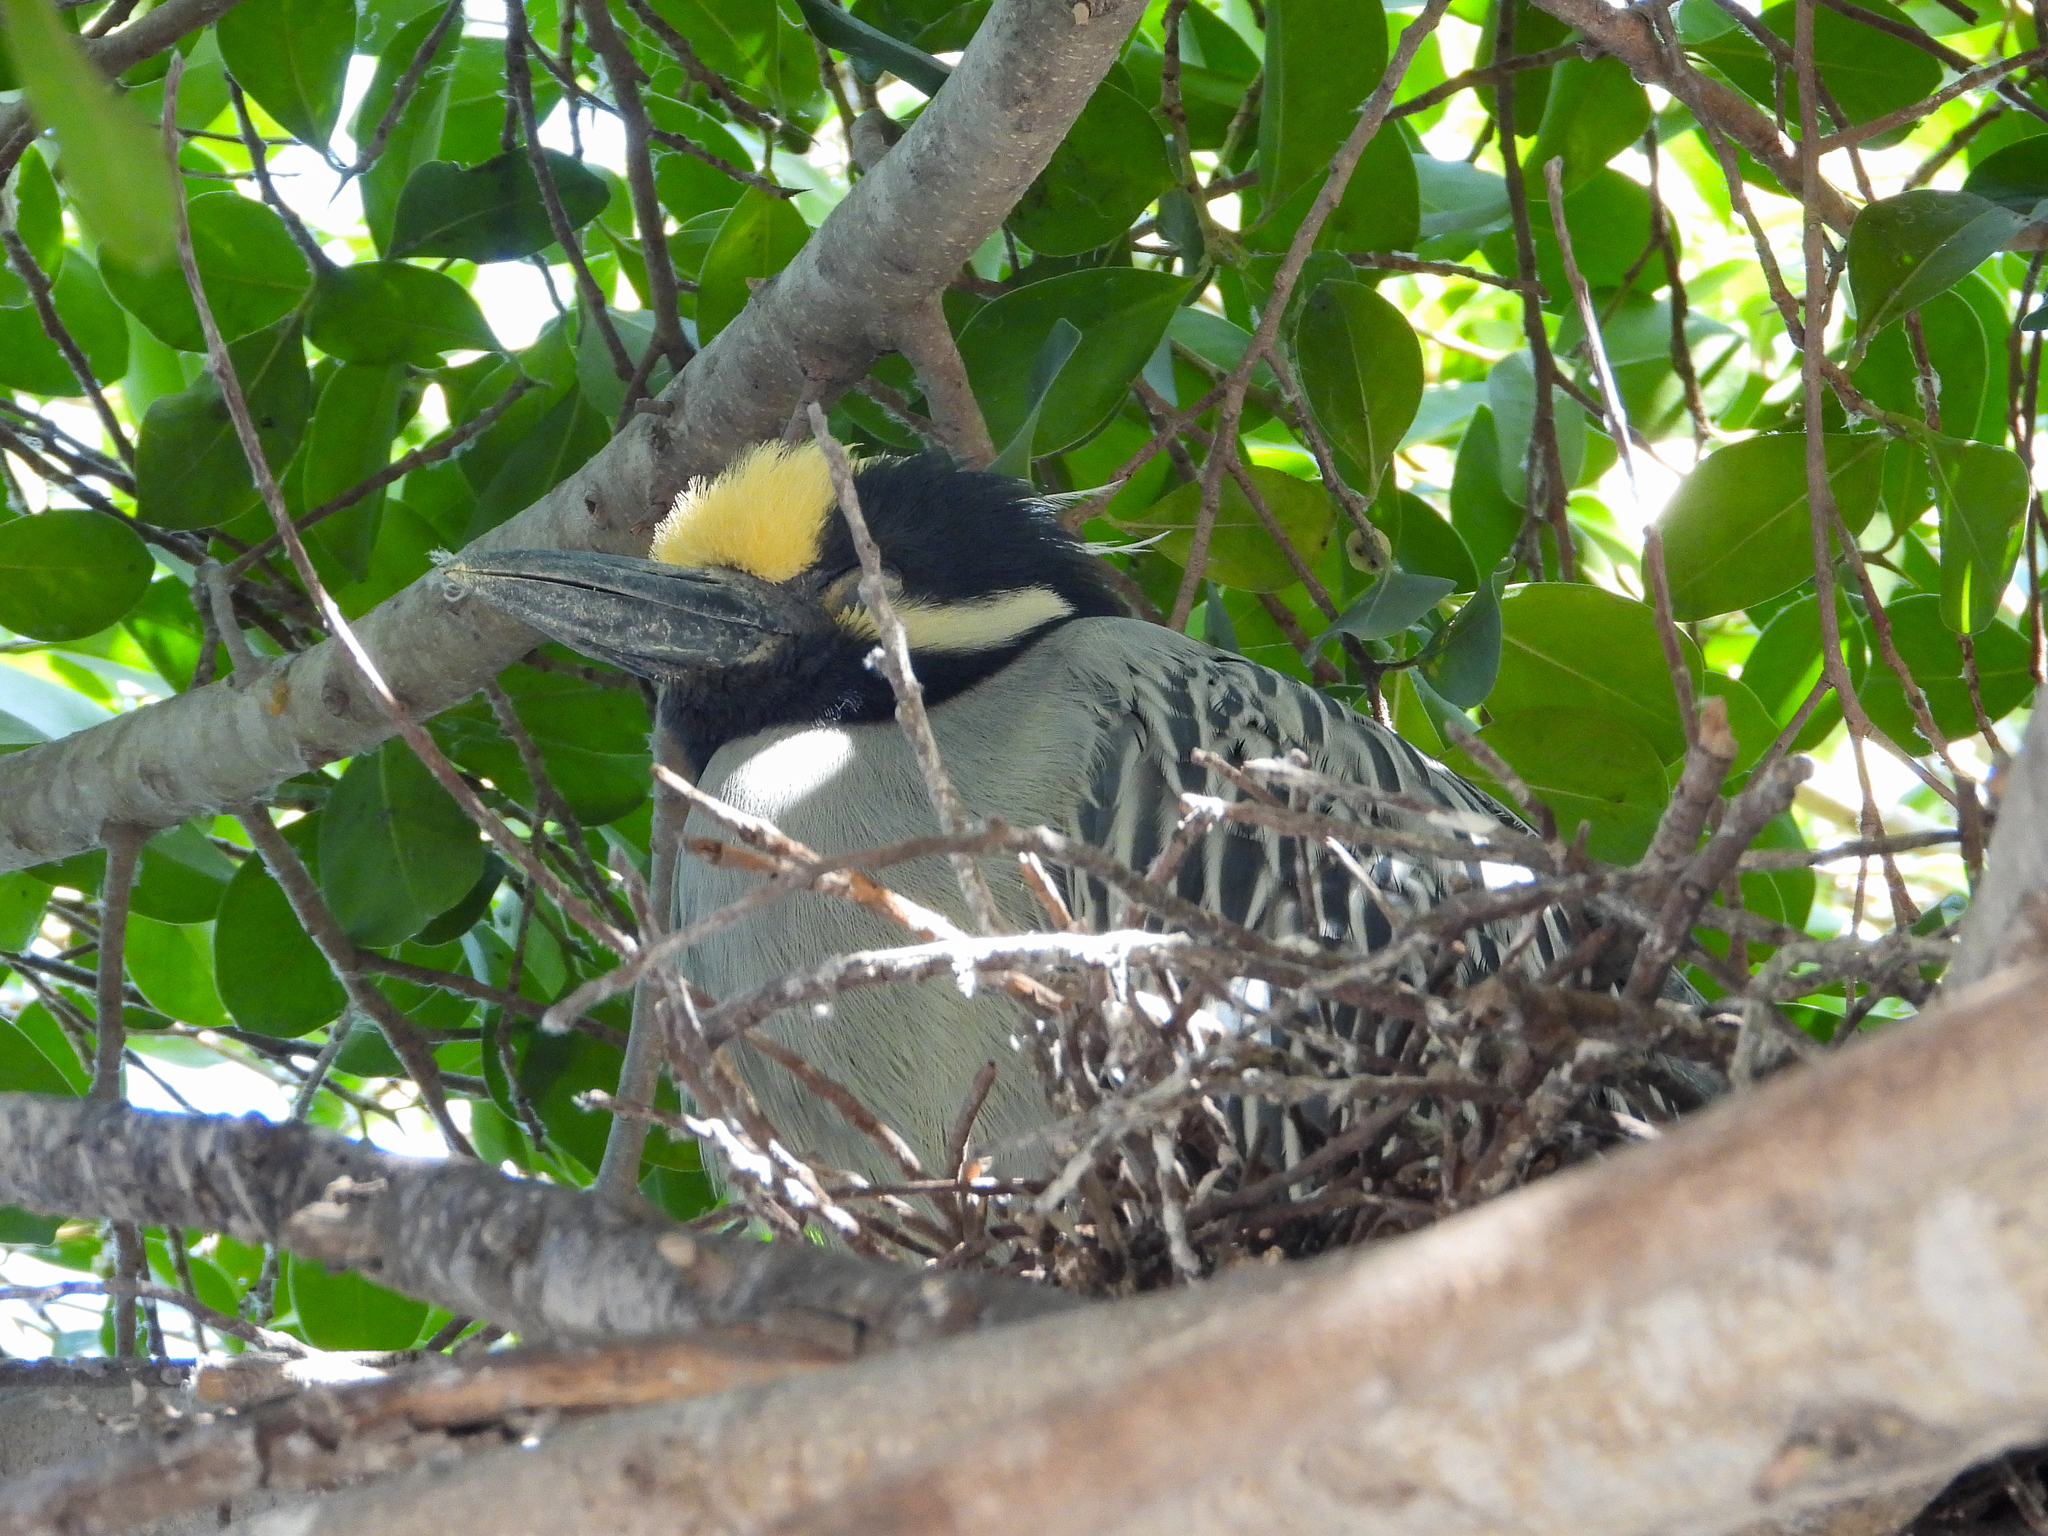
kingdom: Animalia
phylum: Chordata
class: Aves
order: Pelecaniformes
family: Ardeidae
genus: Nyctanassa
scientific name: Nyctanassa violacea
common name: Yellow-crowned night heron
